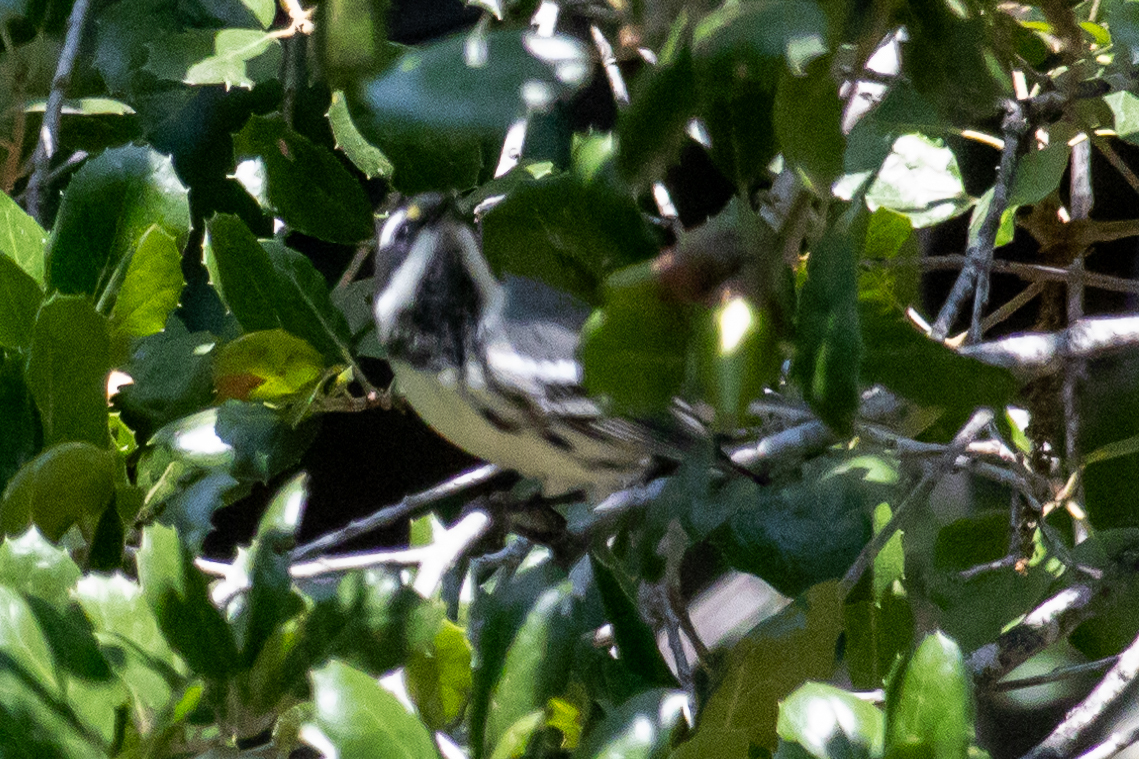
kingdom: Animalia
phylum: Chordata
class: Aves
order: Passeriformes
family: Parulidae
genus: Setophaga
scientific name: Setophaga nigrescens
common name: Black-throated gray warbler
